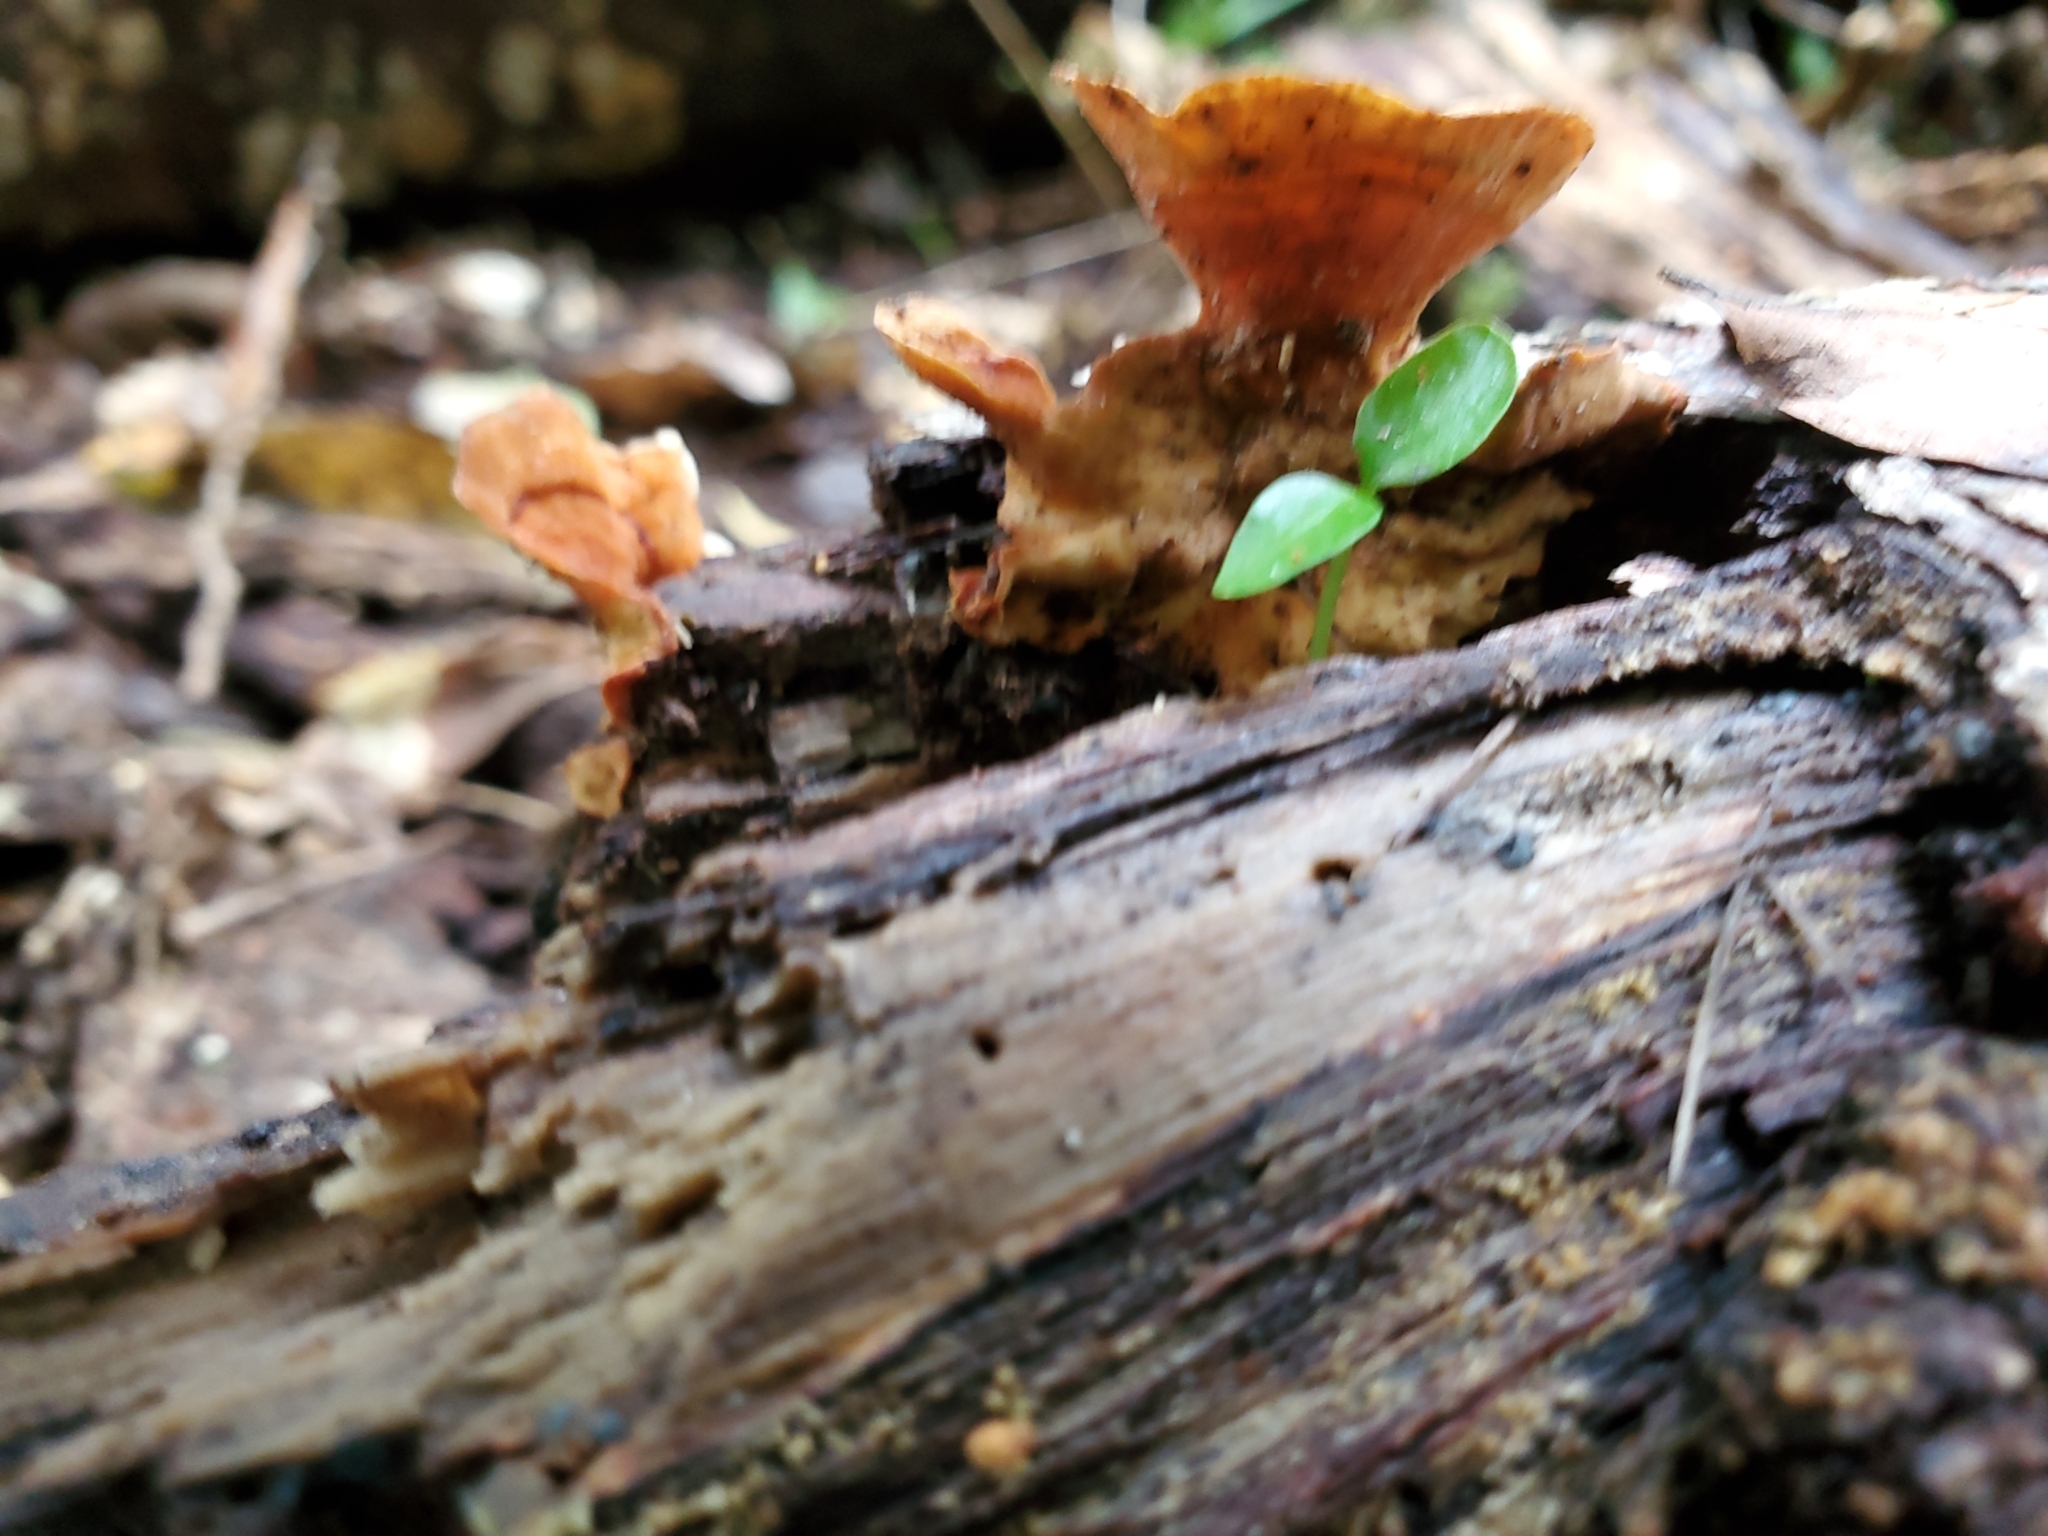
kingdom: Fungi
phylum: Basidiomycota
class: Agaricomycetes
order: Russulales
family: Stereaceae
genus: Stereum
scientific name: Stereum versicolor
